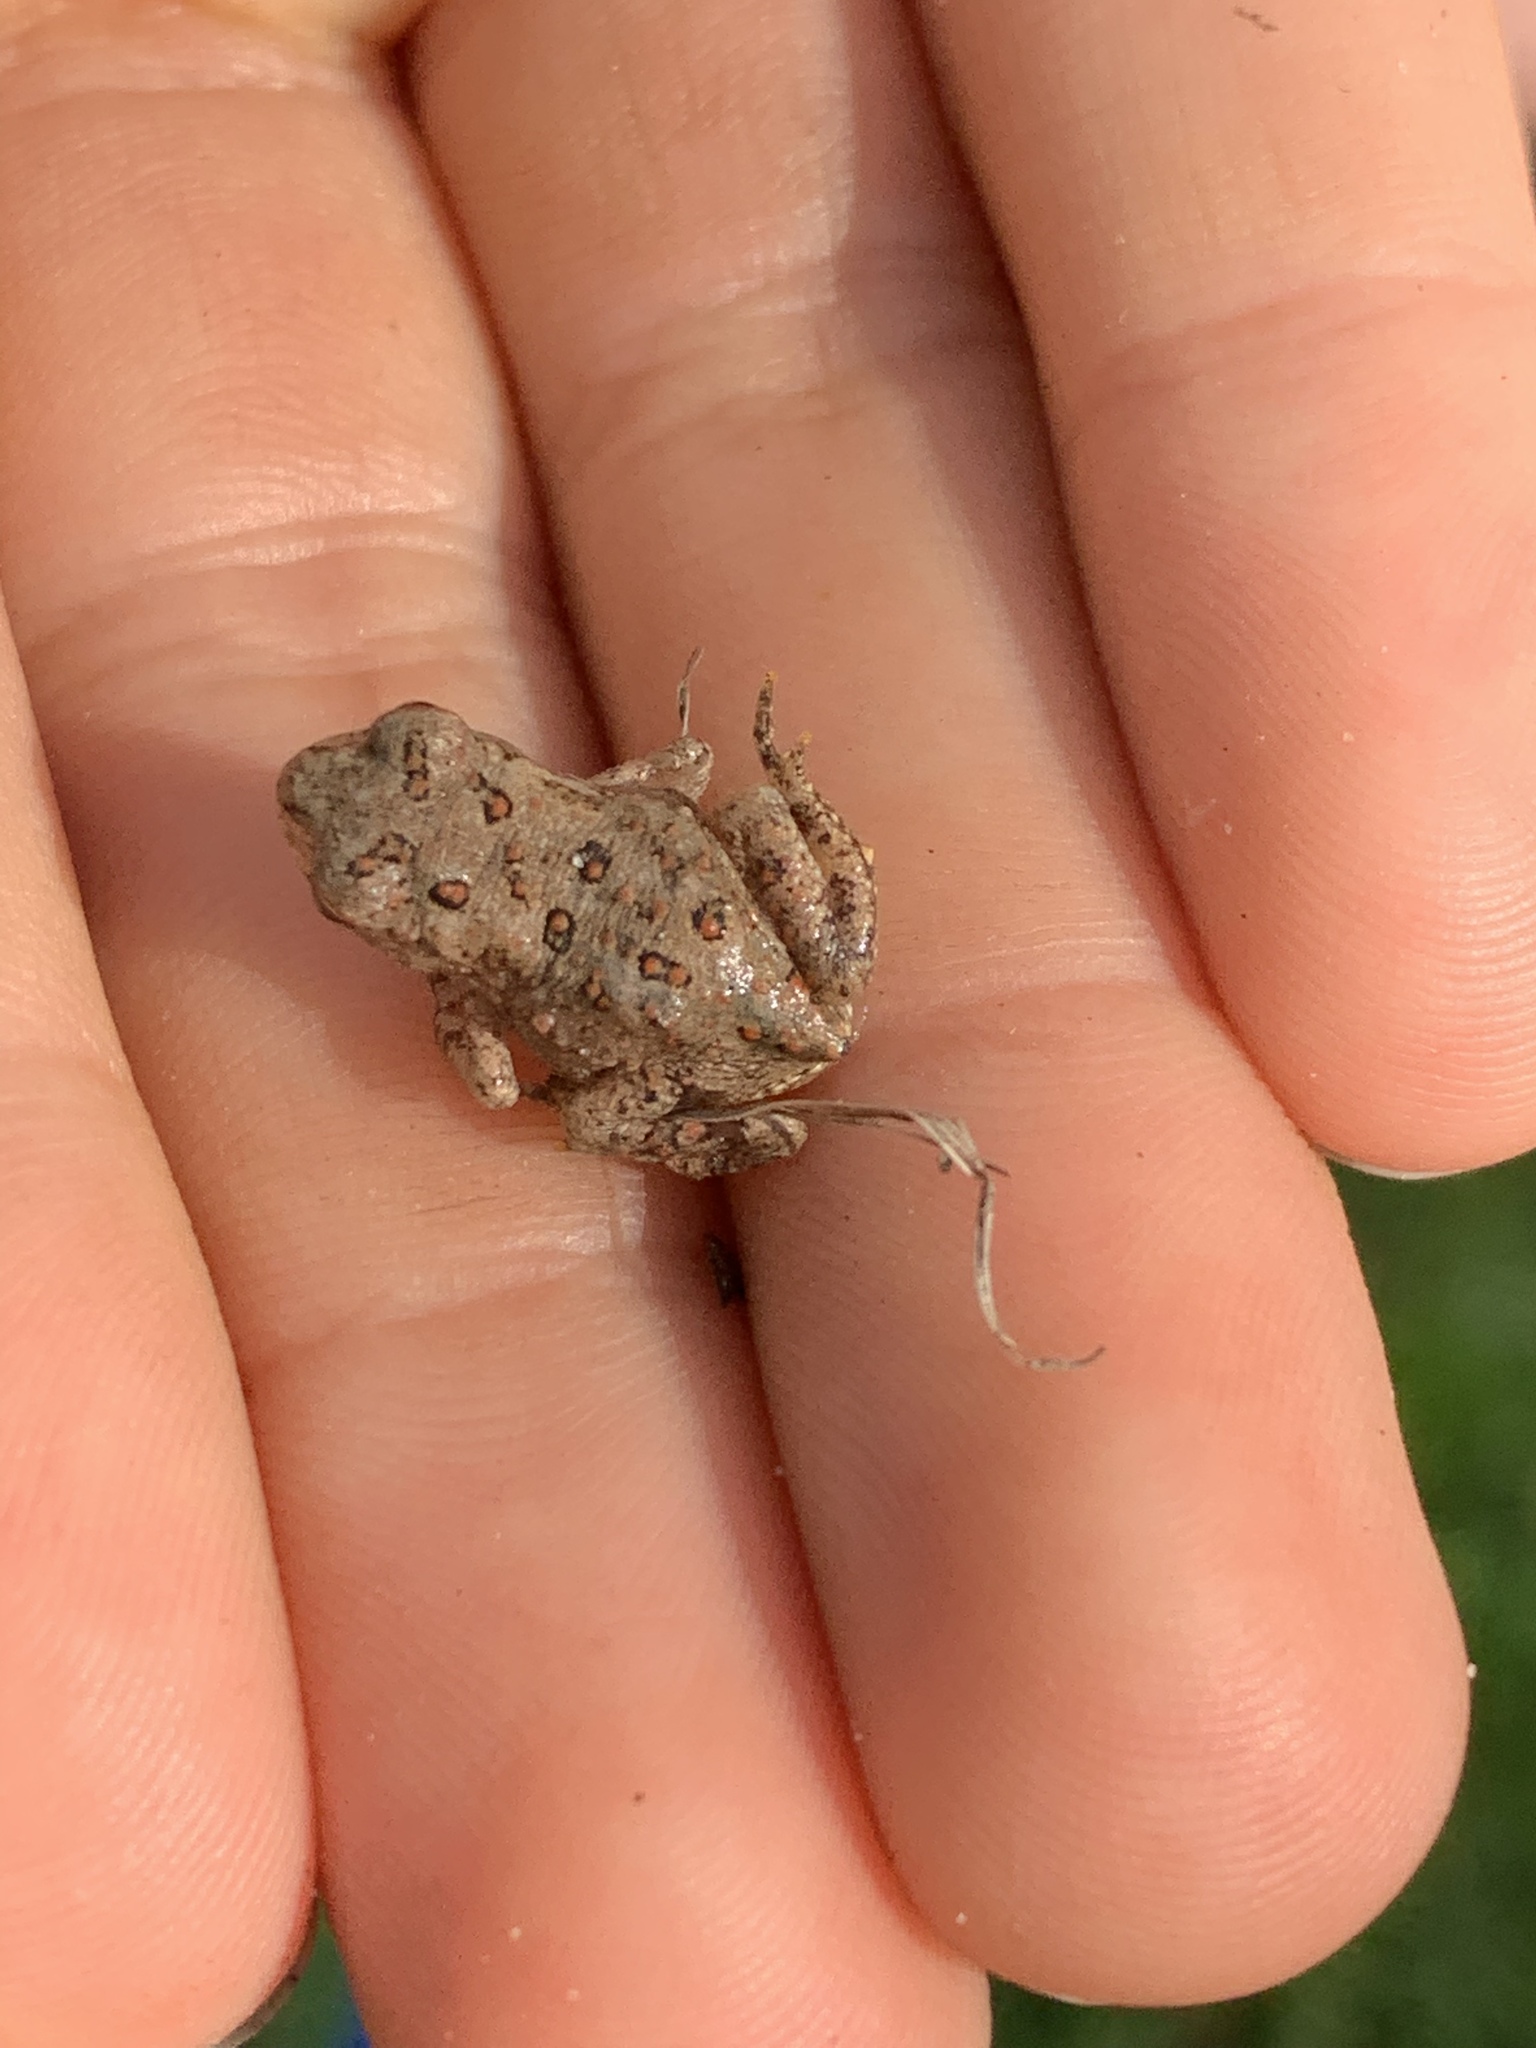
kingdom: Animalia
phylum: Chordata
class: Amphibia
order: Anura
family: Bufonidae
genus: Anaxyrus
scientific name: Anaxyrus americanus
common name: American toad
